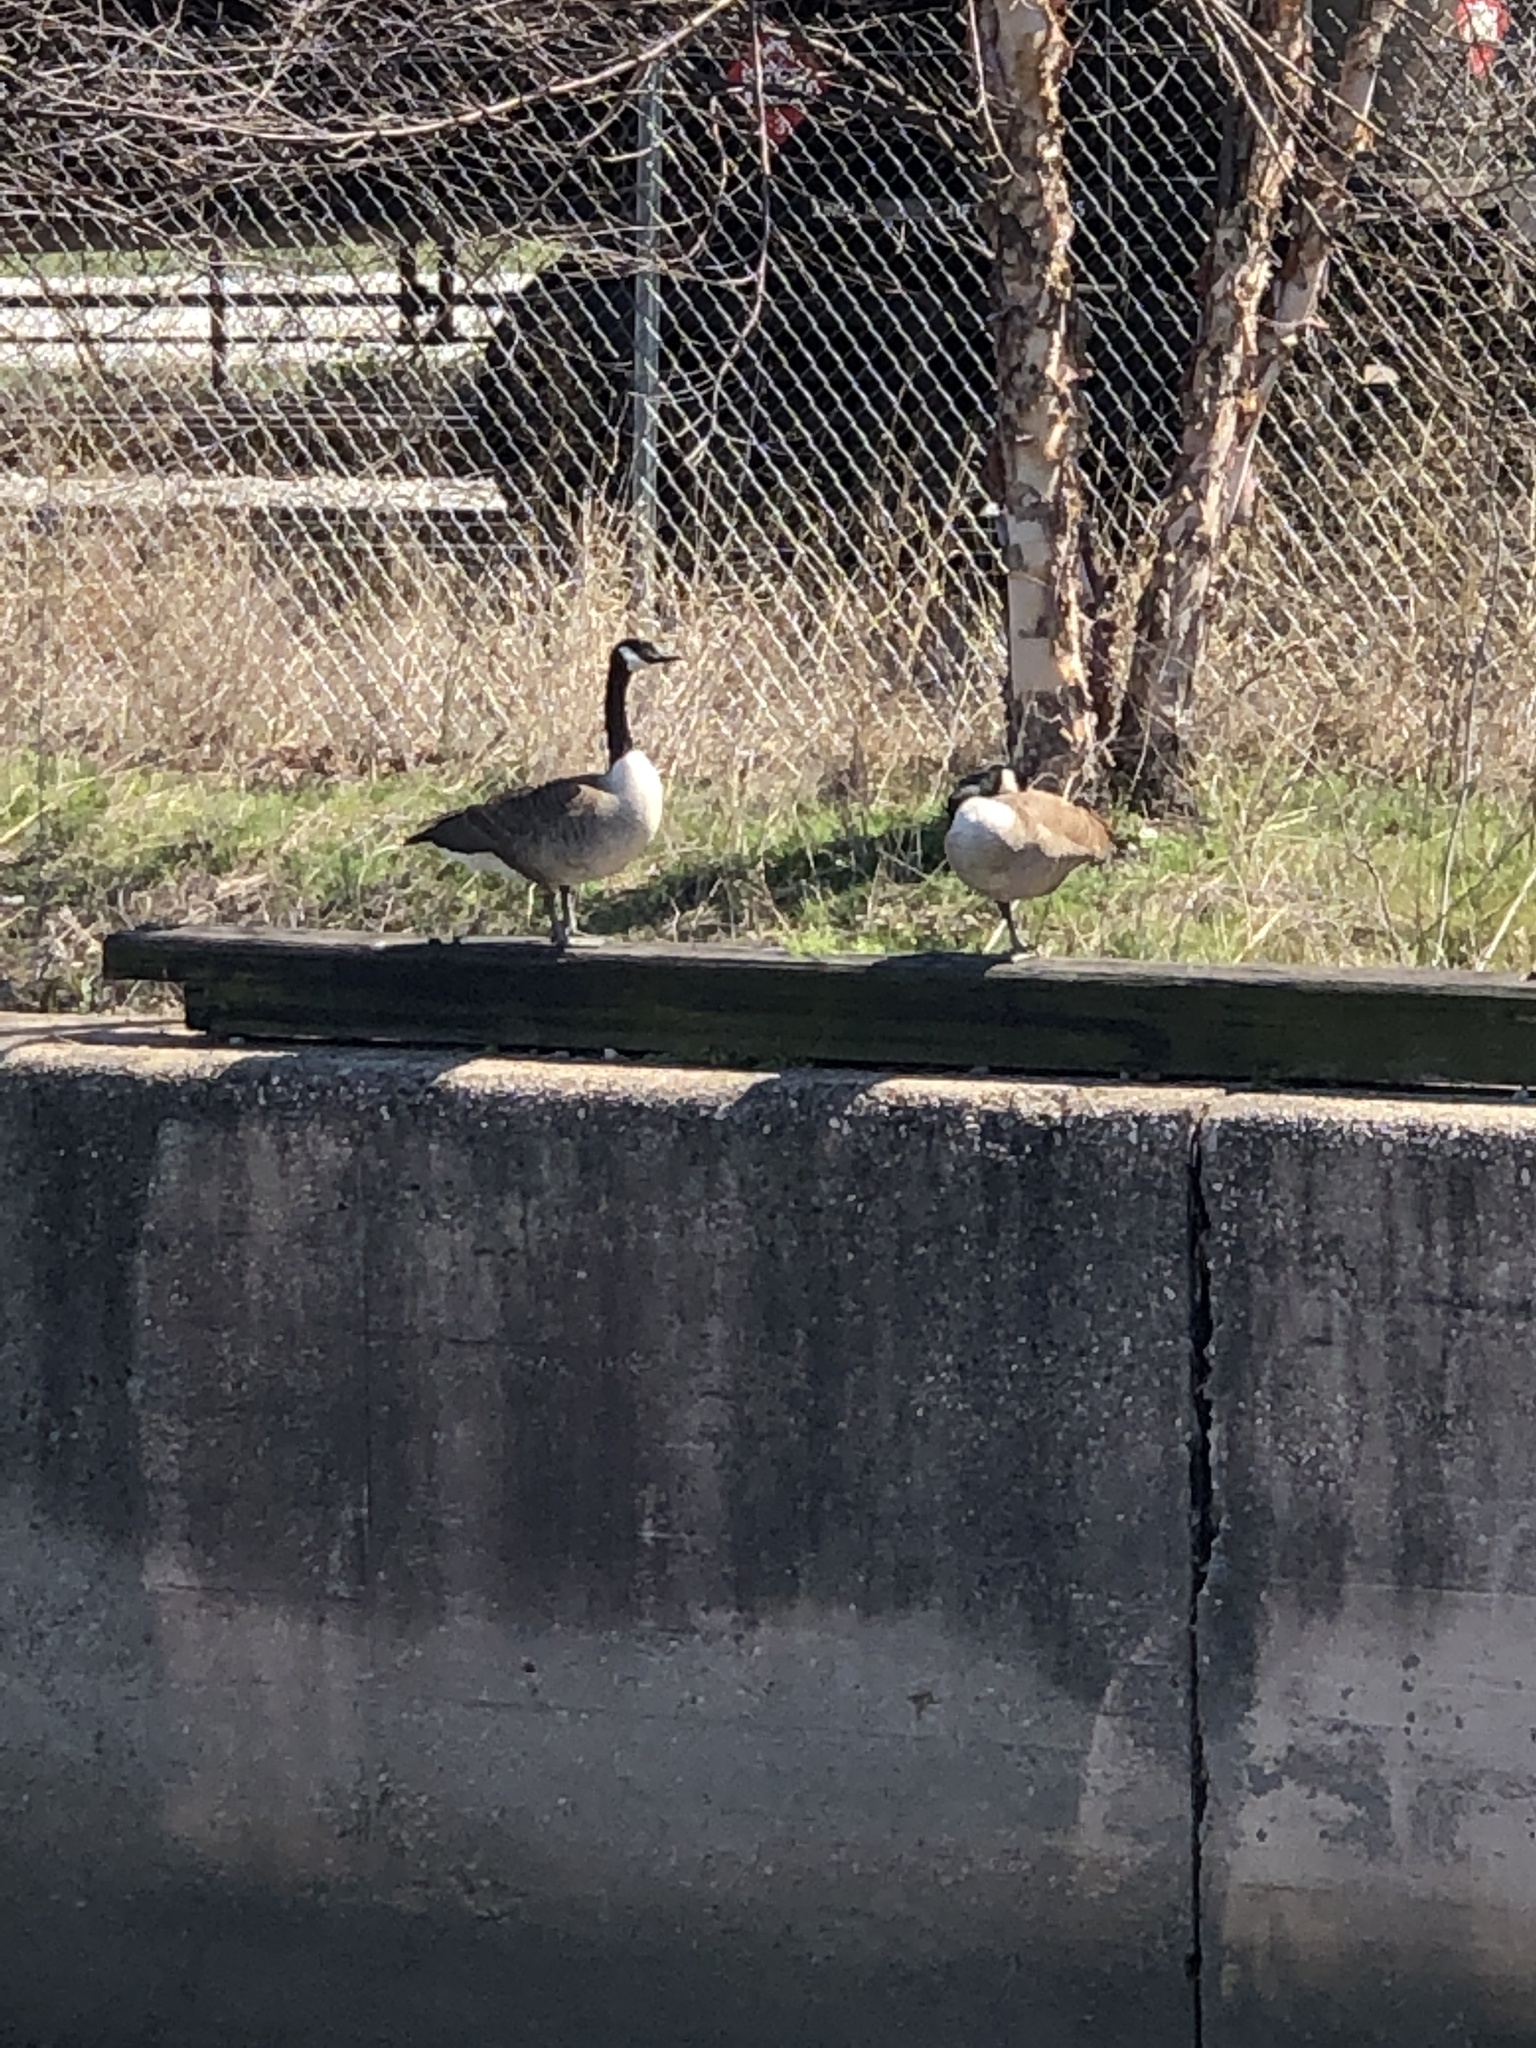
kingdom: Animalia
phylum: Chordata
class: Aves
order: Anseriformes
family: Anatidae
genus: Branta
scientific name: Branta canadensis
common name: Canada goose
